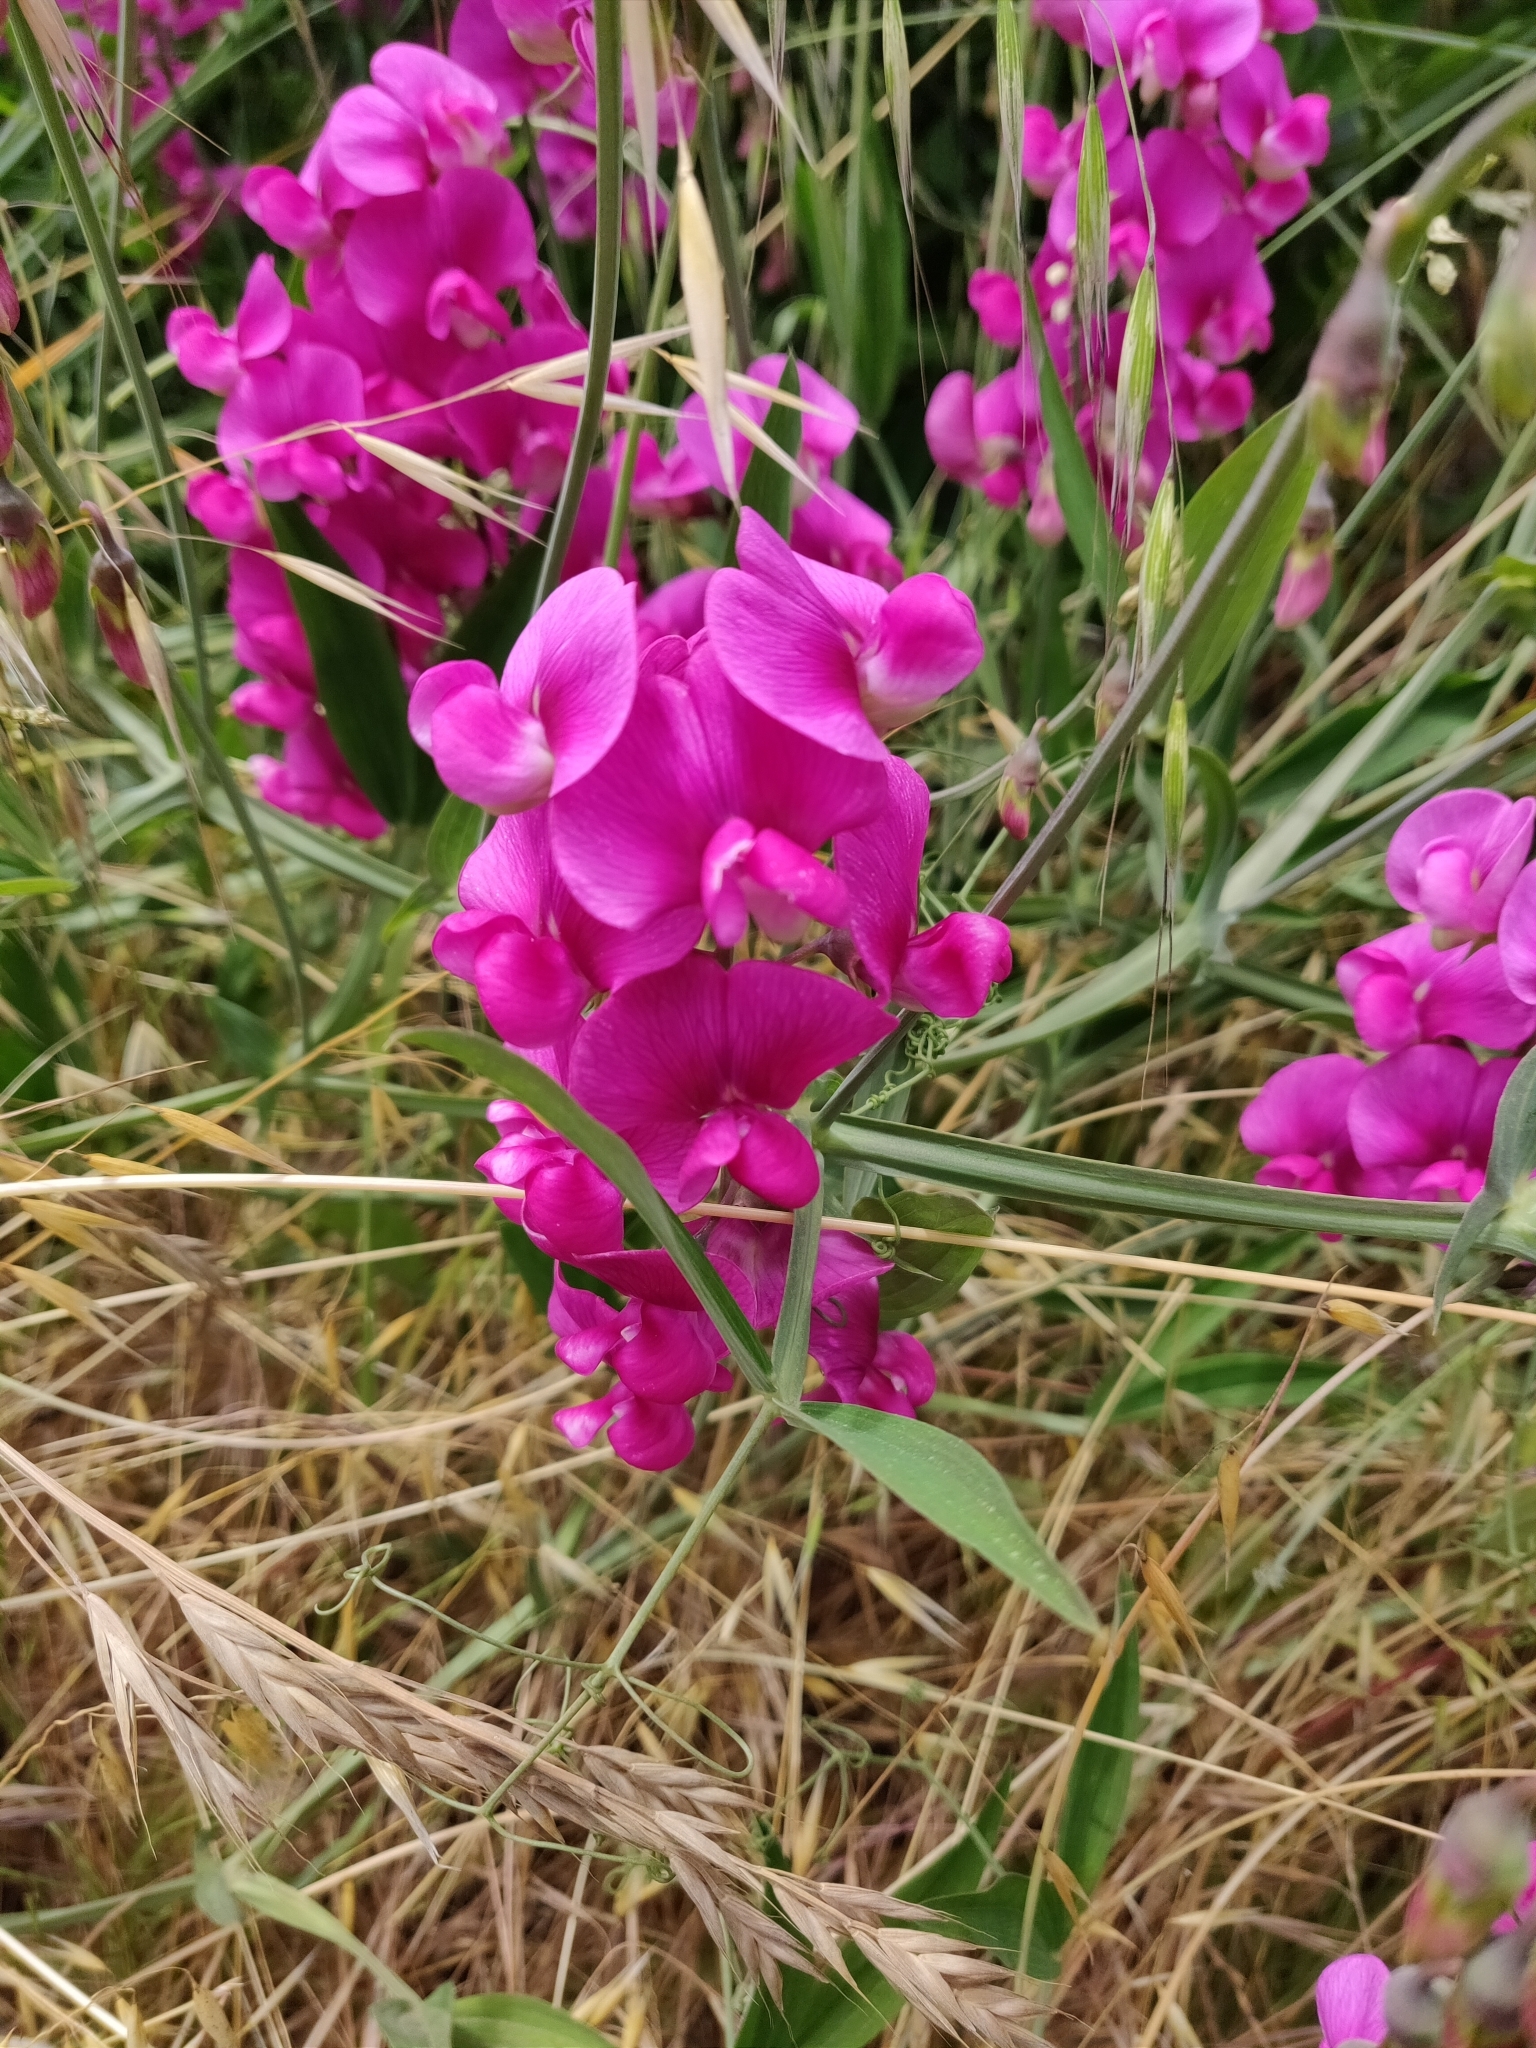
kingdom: Plantae
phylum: Tracheophyta
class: Magnoliopsida
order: Fabales
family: Fabaceae
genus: Lathyrus
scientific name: Lathyrus latifolius
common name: Perennial pea
